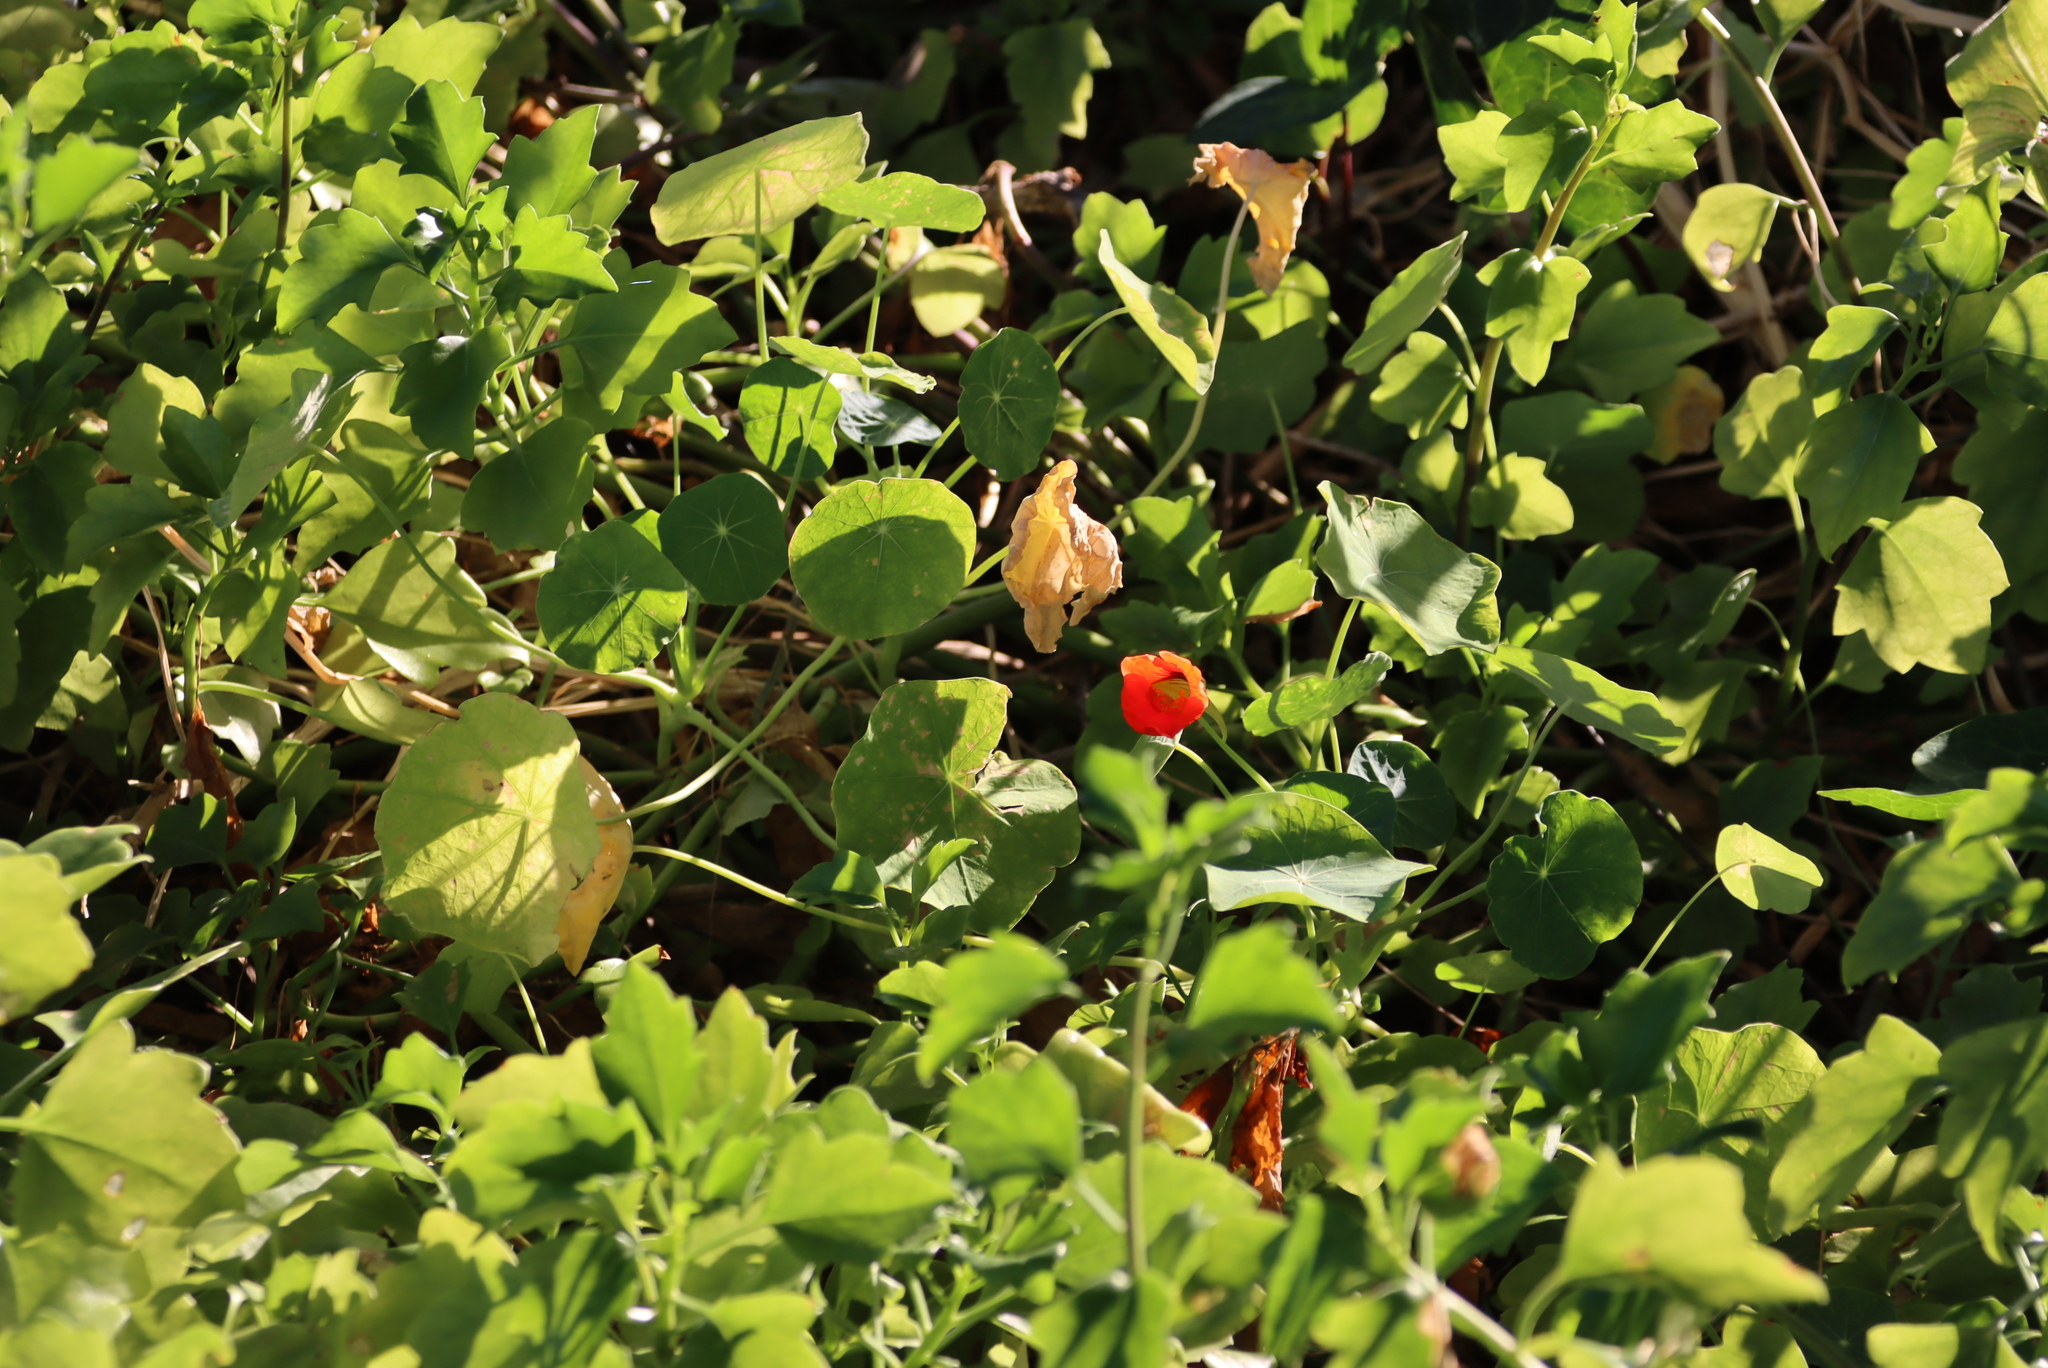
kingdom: Plantae
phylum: Tracheophyta
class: Magnoliopsida
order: Brassicales
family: Tropaeolaceae
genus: Tropaeolum
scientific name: Tropaeolum majus
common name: Nasturtium
